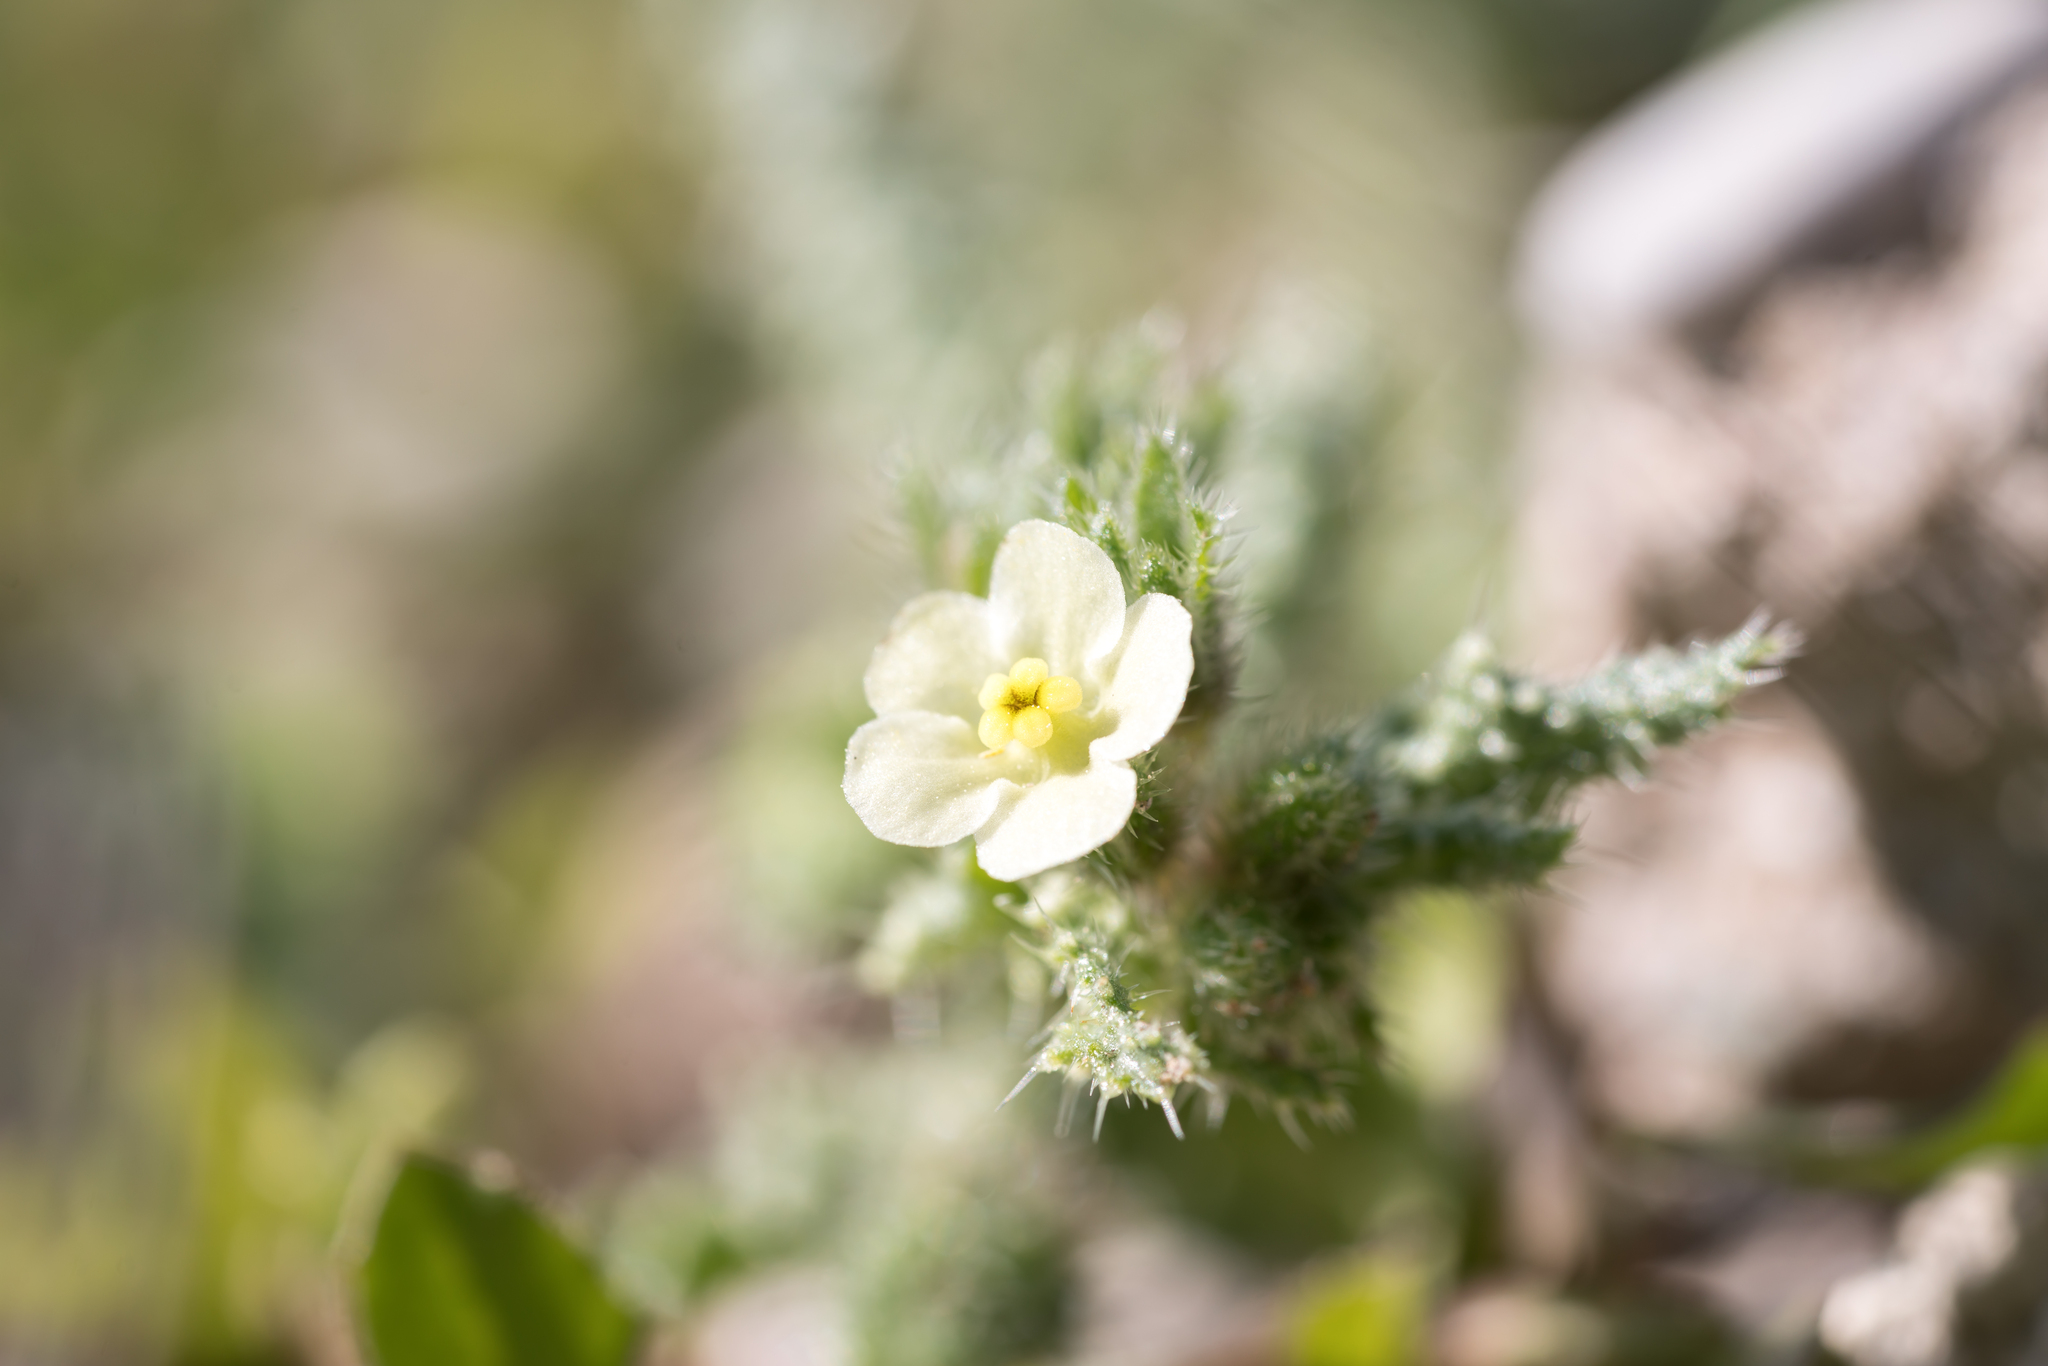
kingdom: Plantae
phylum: Tracheophyta
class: Magnoliopsida
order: Boraginales
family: Boraginaceae
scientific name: Boraginaceae
